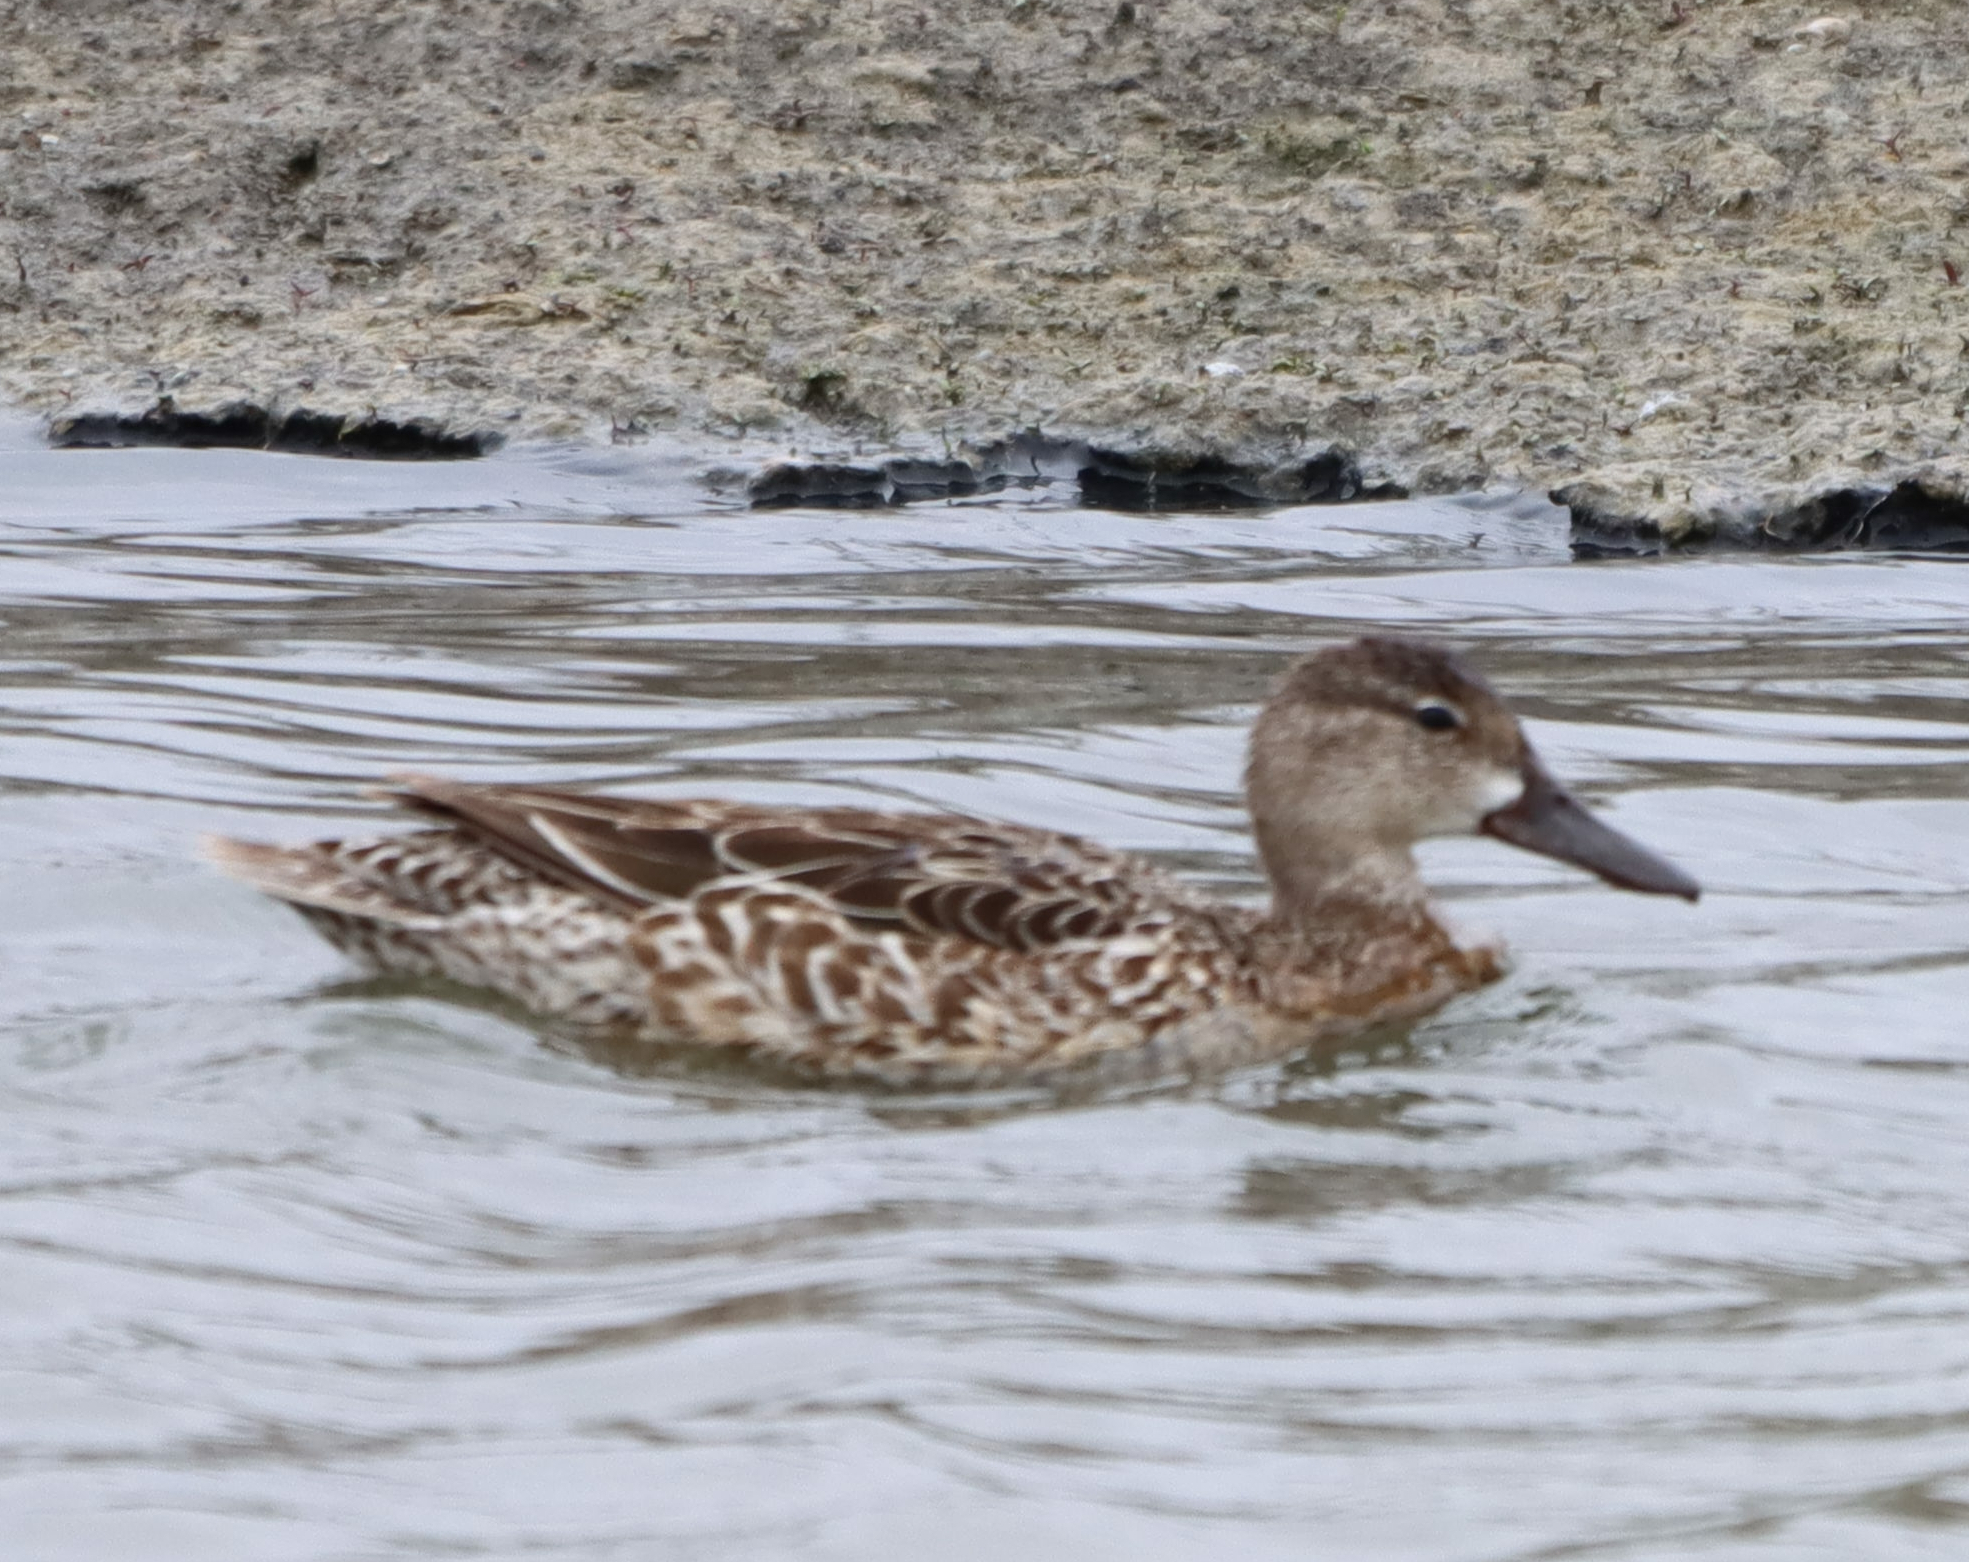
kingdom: Animalia
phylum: Chordata
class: Aves
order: Anseriformes
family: Anatidae
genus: Spatula
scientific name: Spatula discors
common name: Blue-winged teal
